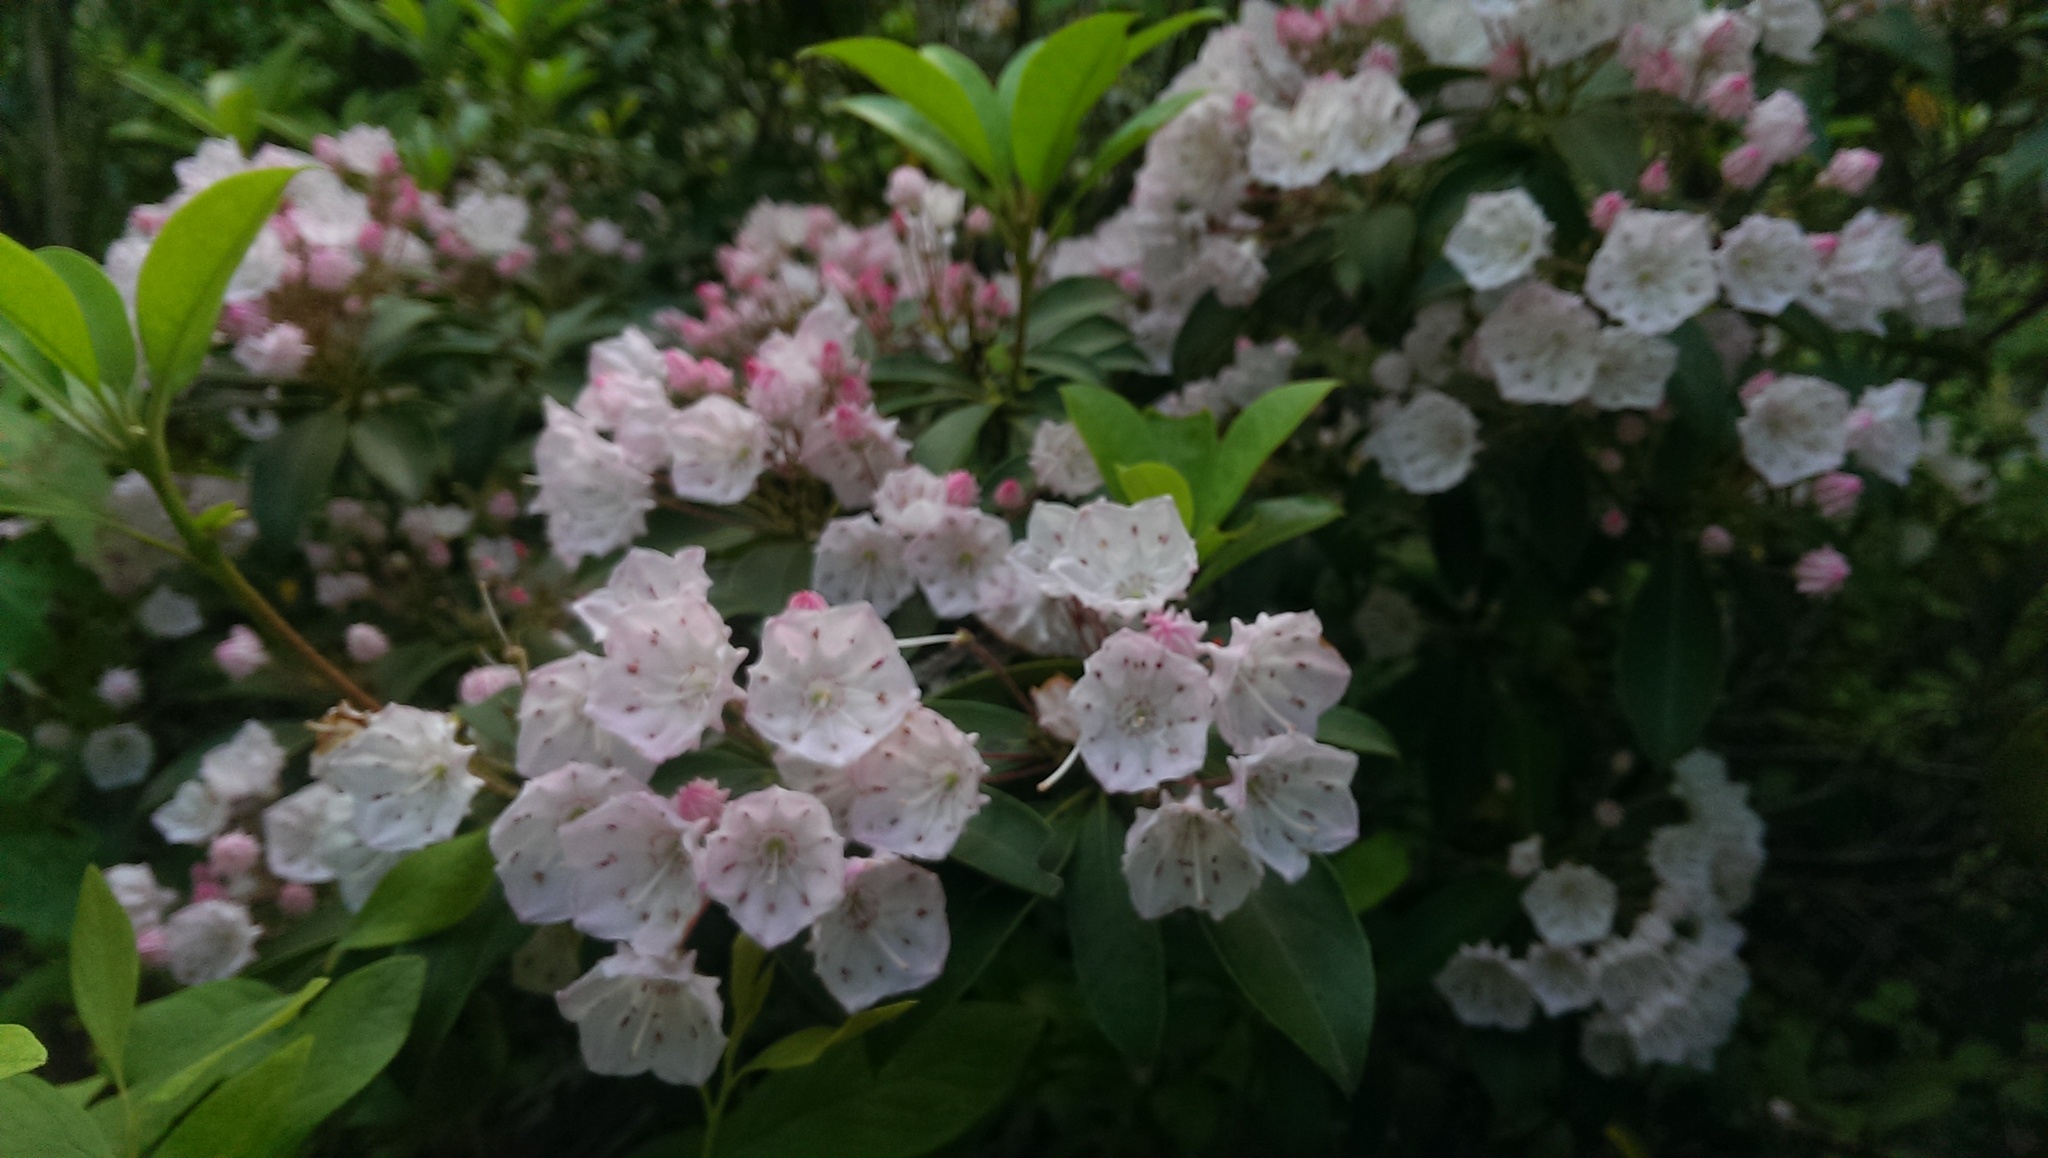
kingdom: Plantae
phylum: Tracheophyta
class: Magnoliopsida
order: Ericales
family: Ericaceae
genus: Kalmia
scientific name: Kalmia latifolia
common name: Mountain-laurel
